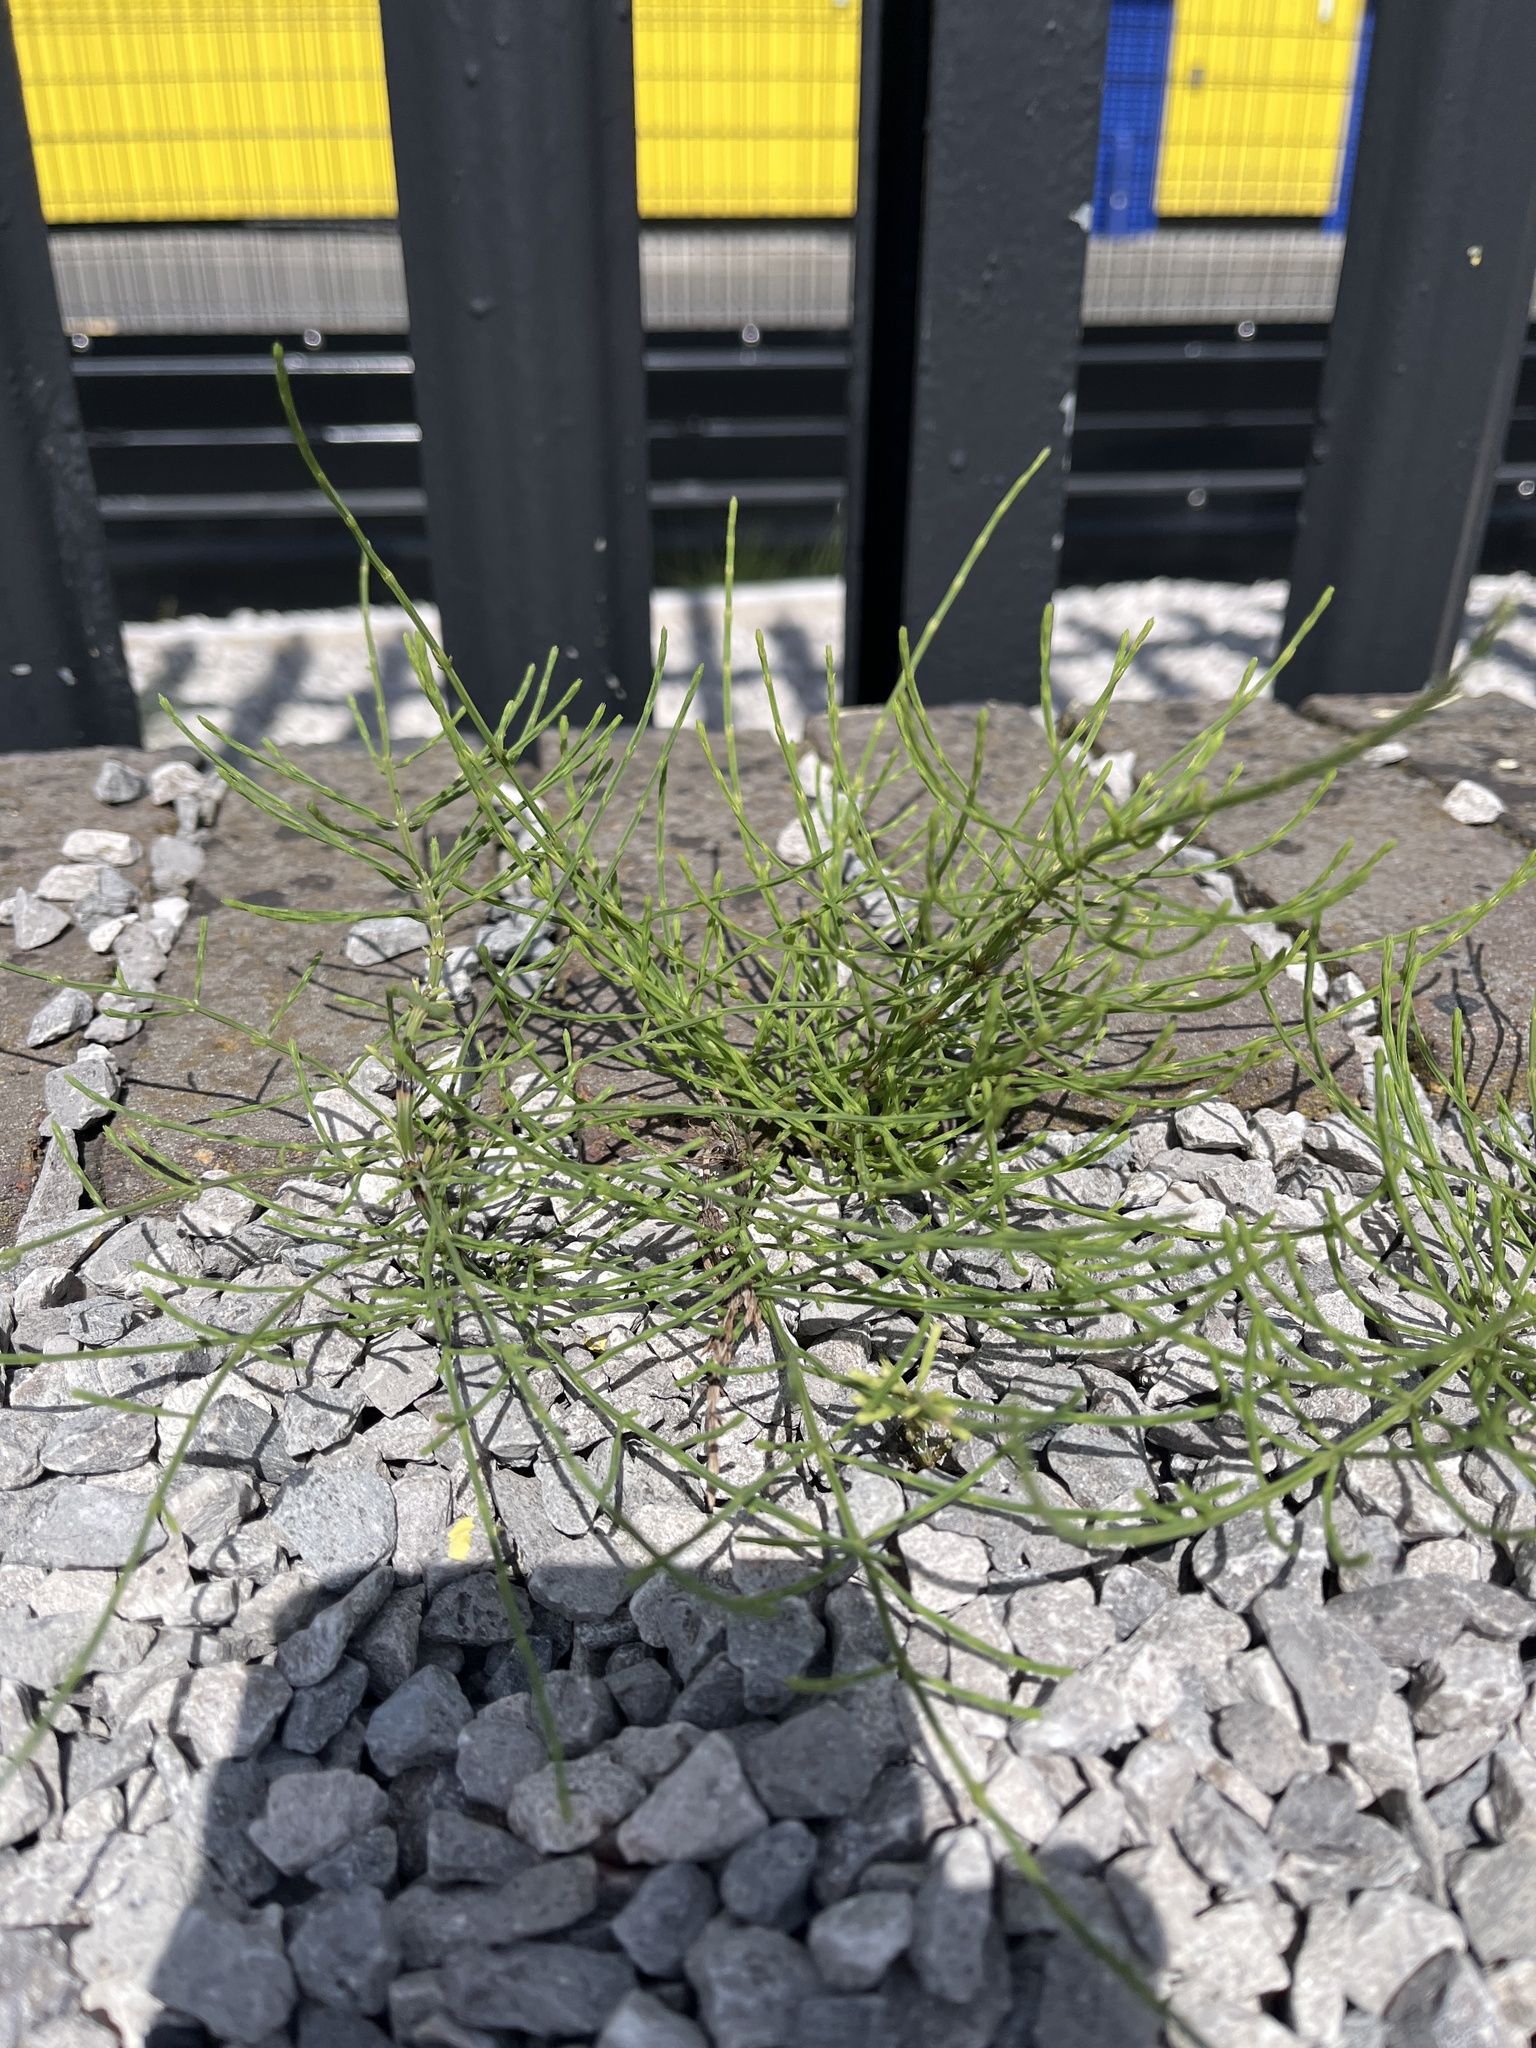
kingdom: Plantae
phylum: Tracheophyta
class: Polypodiopsida
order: Equisetales
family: Equisetaceae
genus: Equisetum
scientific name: Equisetum arvense
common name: Field horsetail
